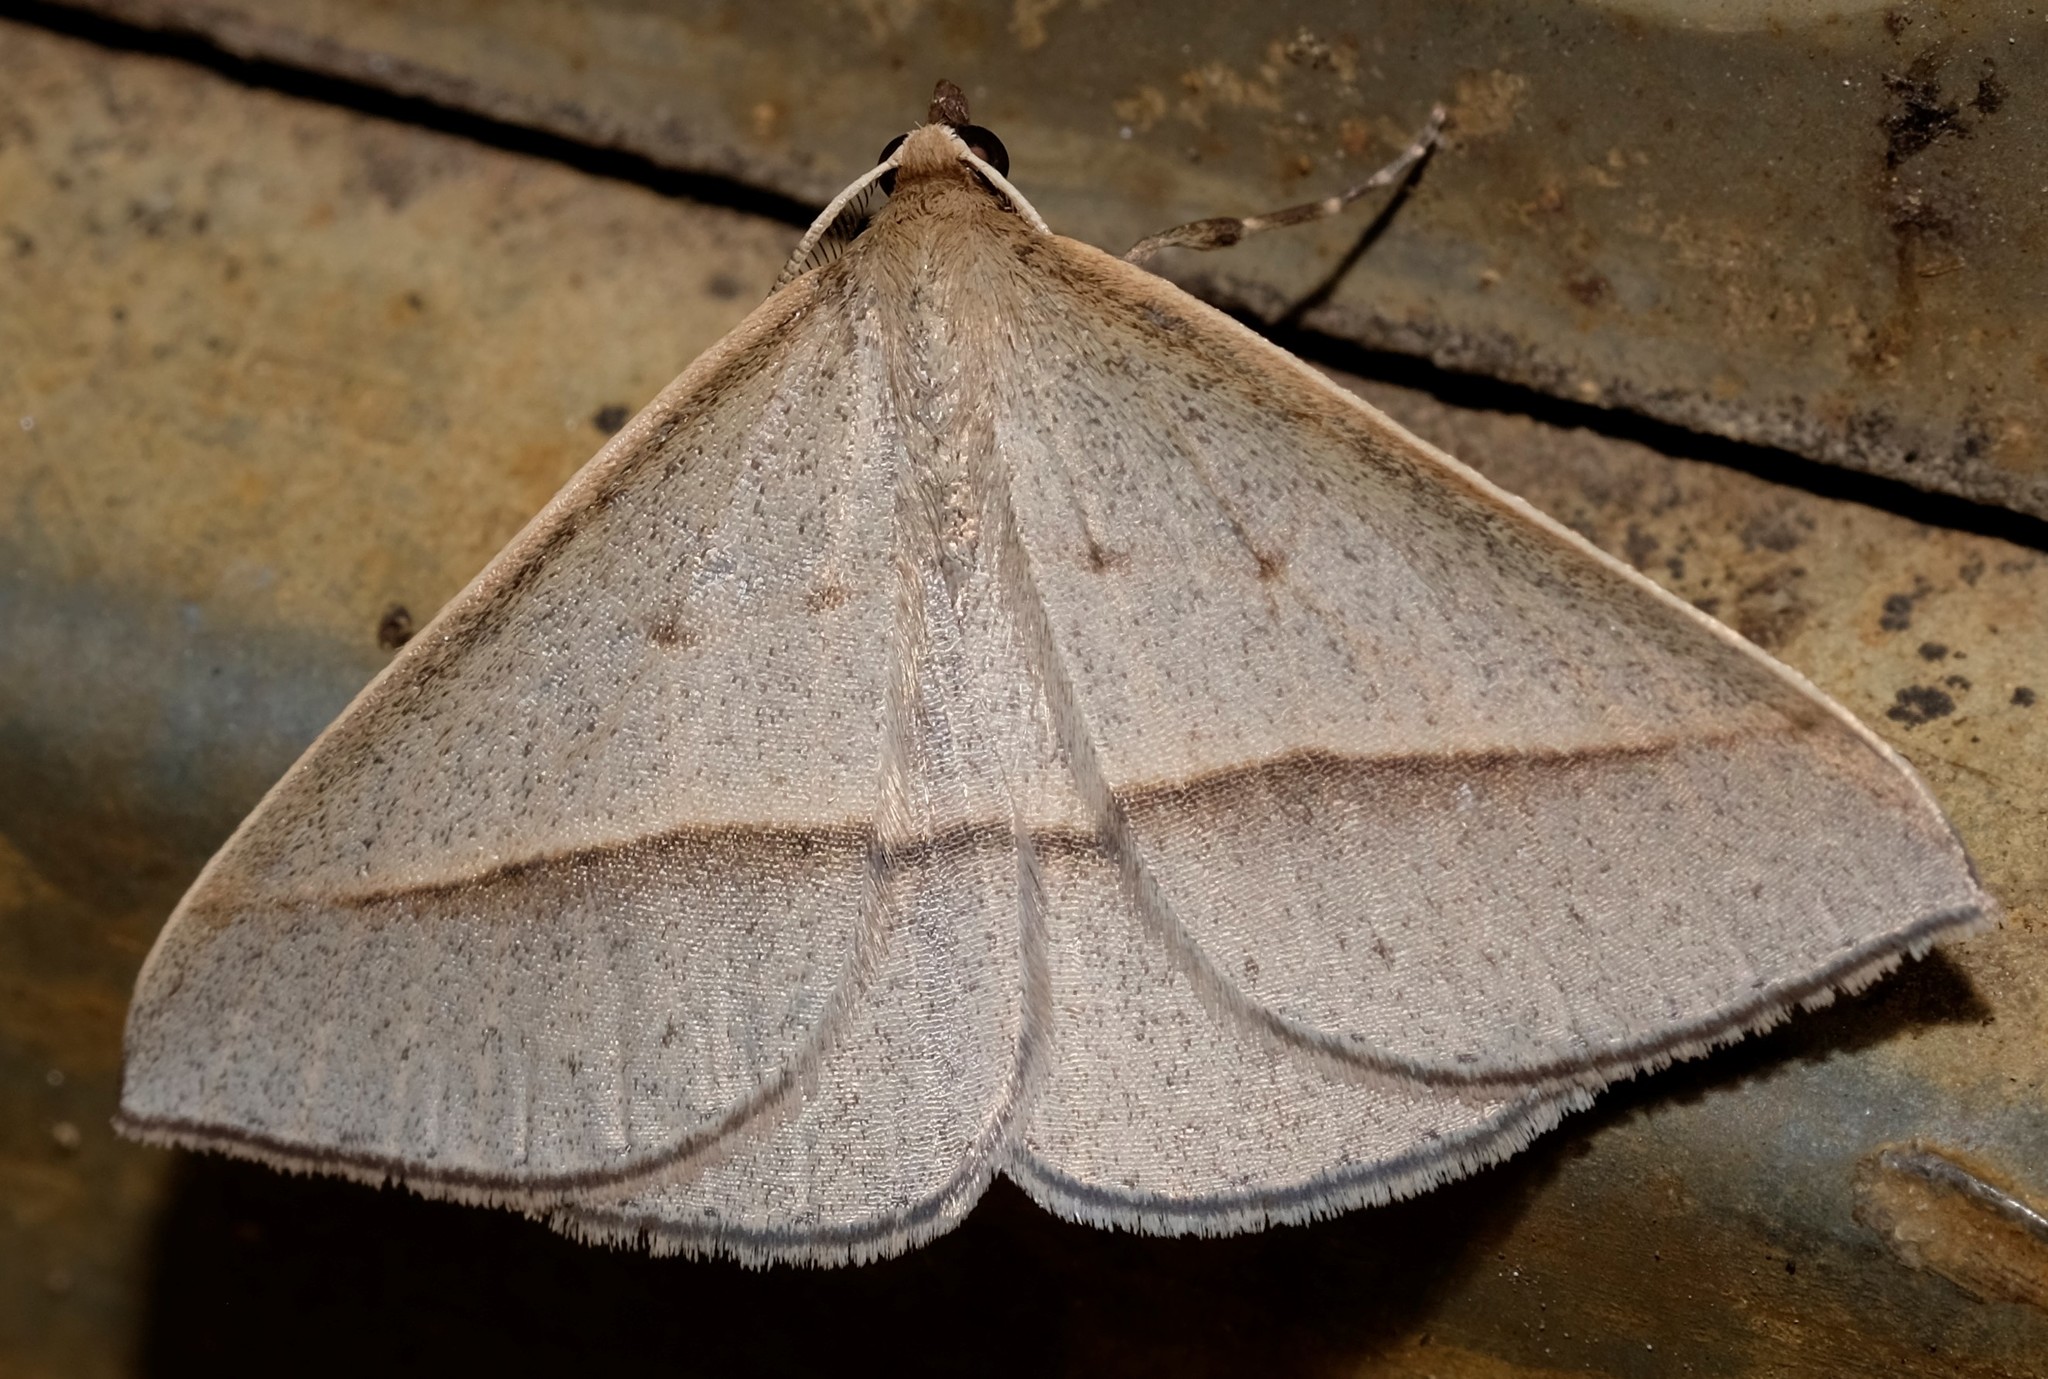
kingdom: Animalia
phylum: Arthropoda
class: Insecta
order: Lepidoptera
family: Geometridae
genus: Epidesmia
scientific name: Epidesmia tryxaria
